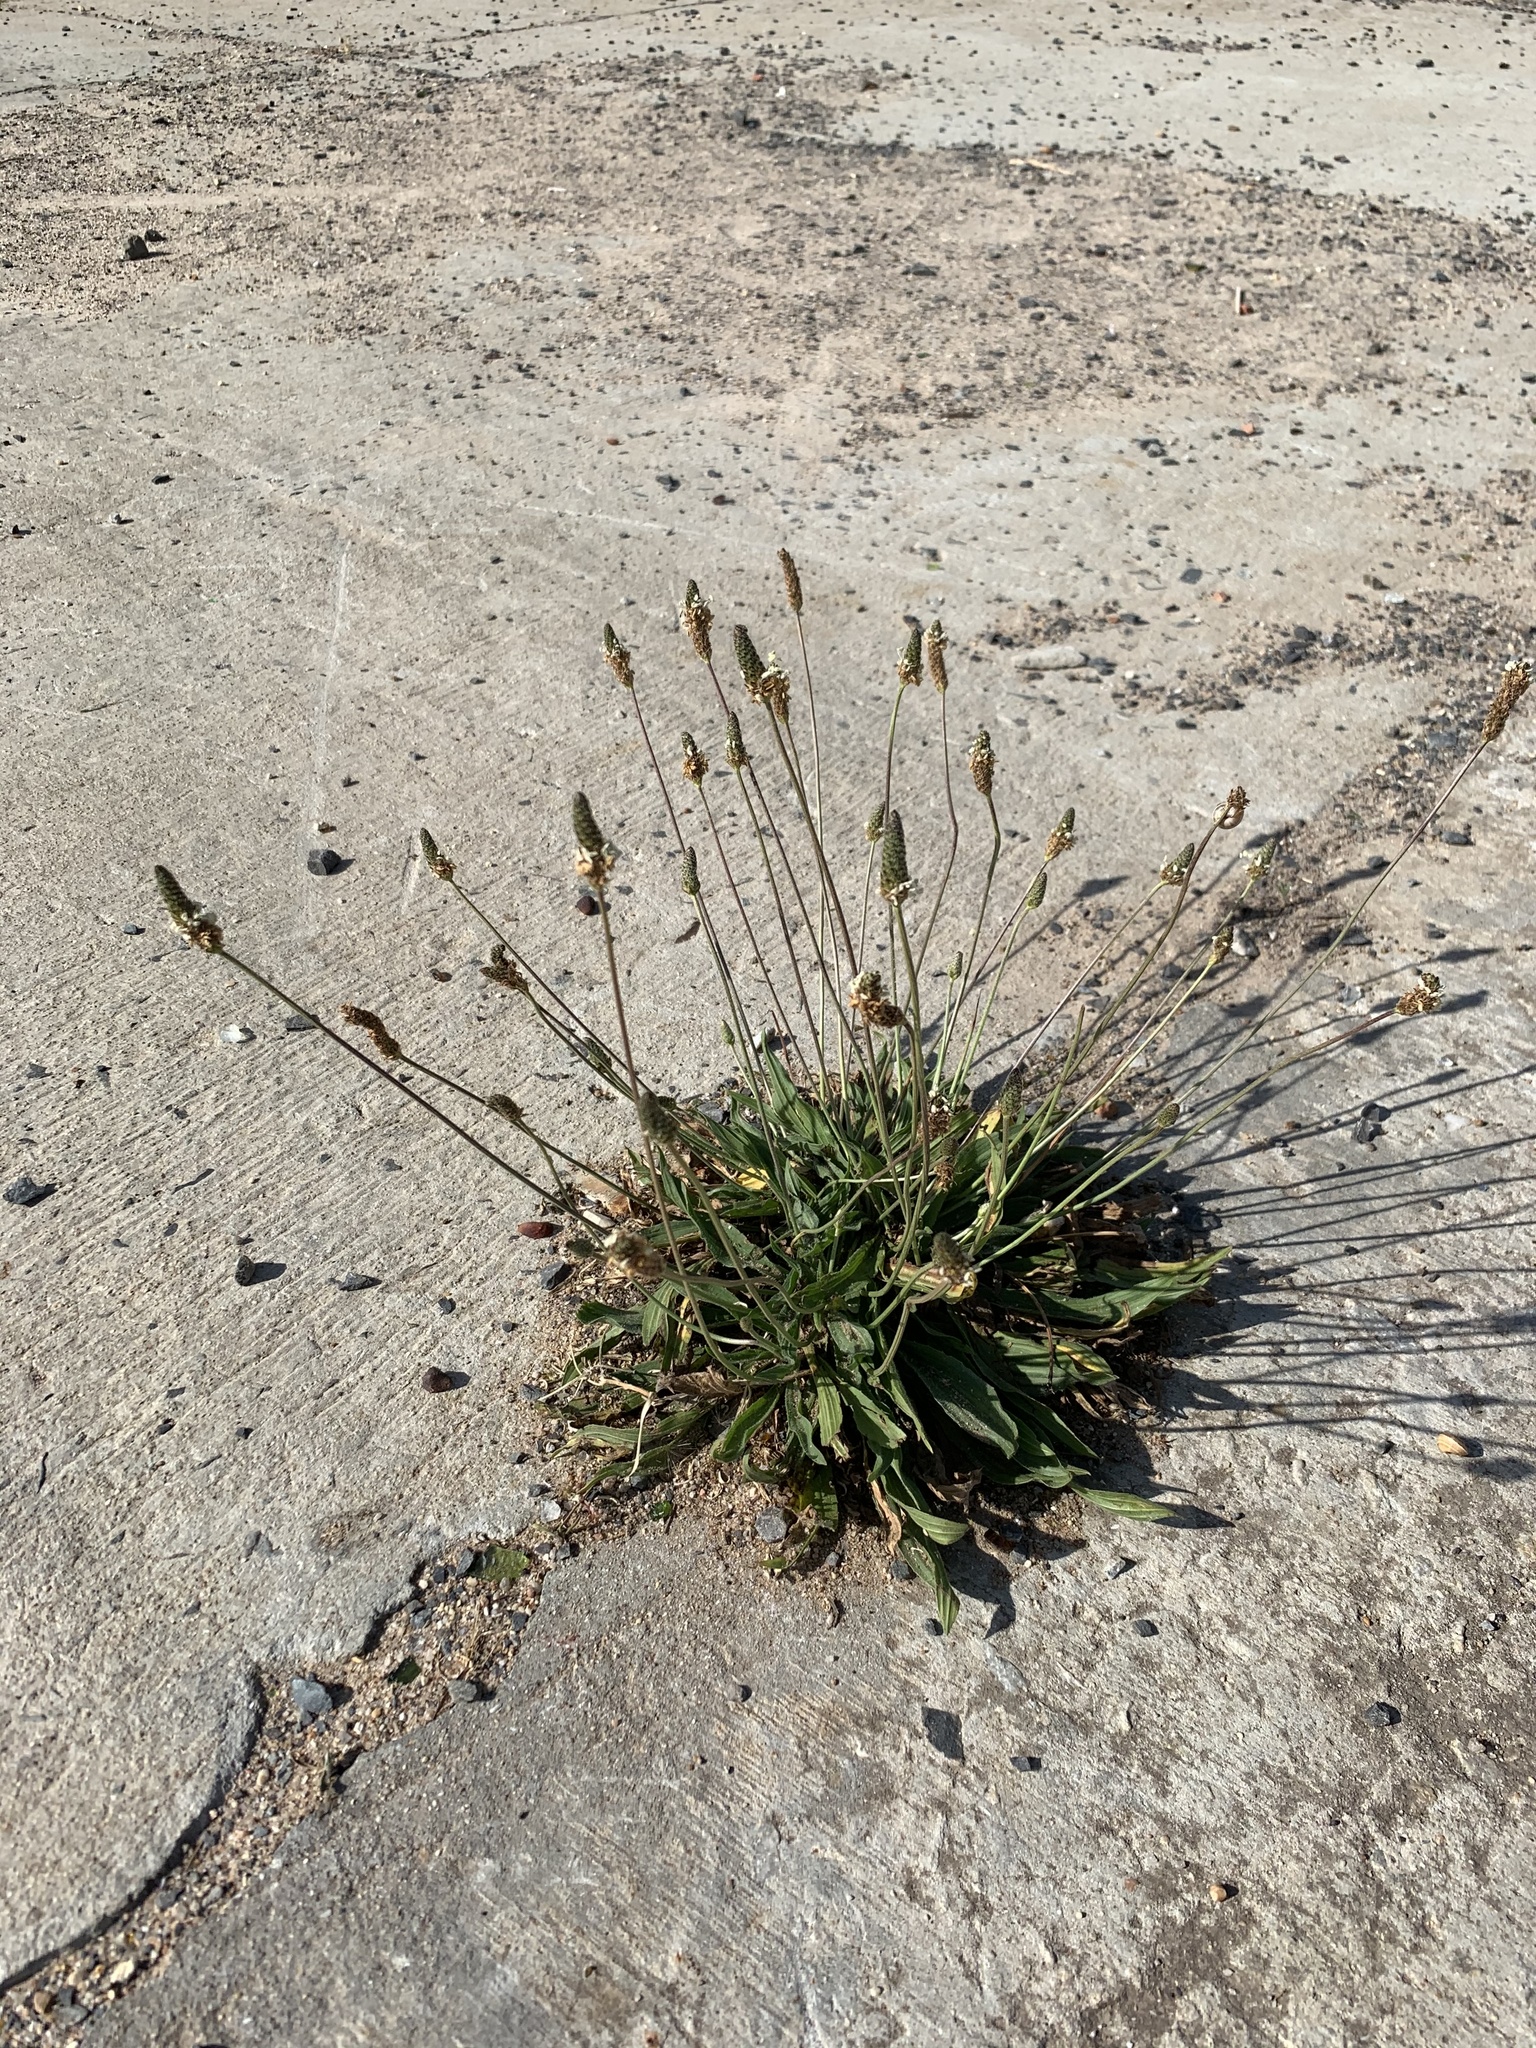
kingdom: Plantae
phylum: Tracheophyta
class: Magnoliopsida
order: Lamiales
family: Plantaginaceae
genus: Plantago
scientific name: Plantago lanceolata
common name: Ribwort plantain
